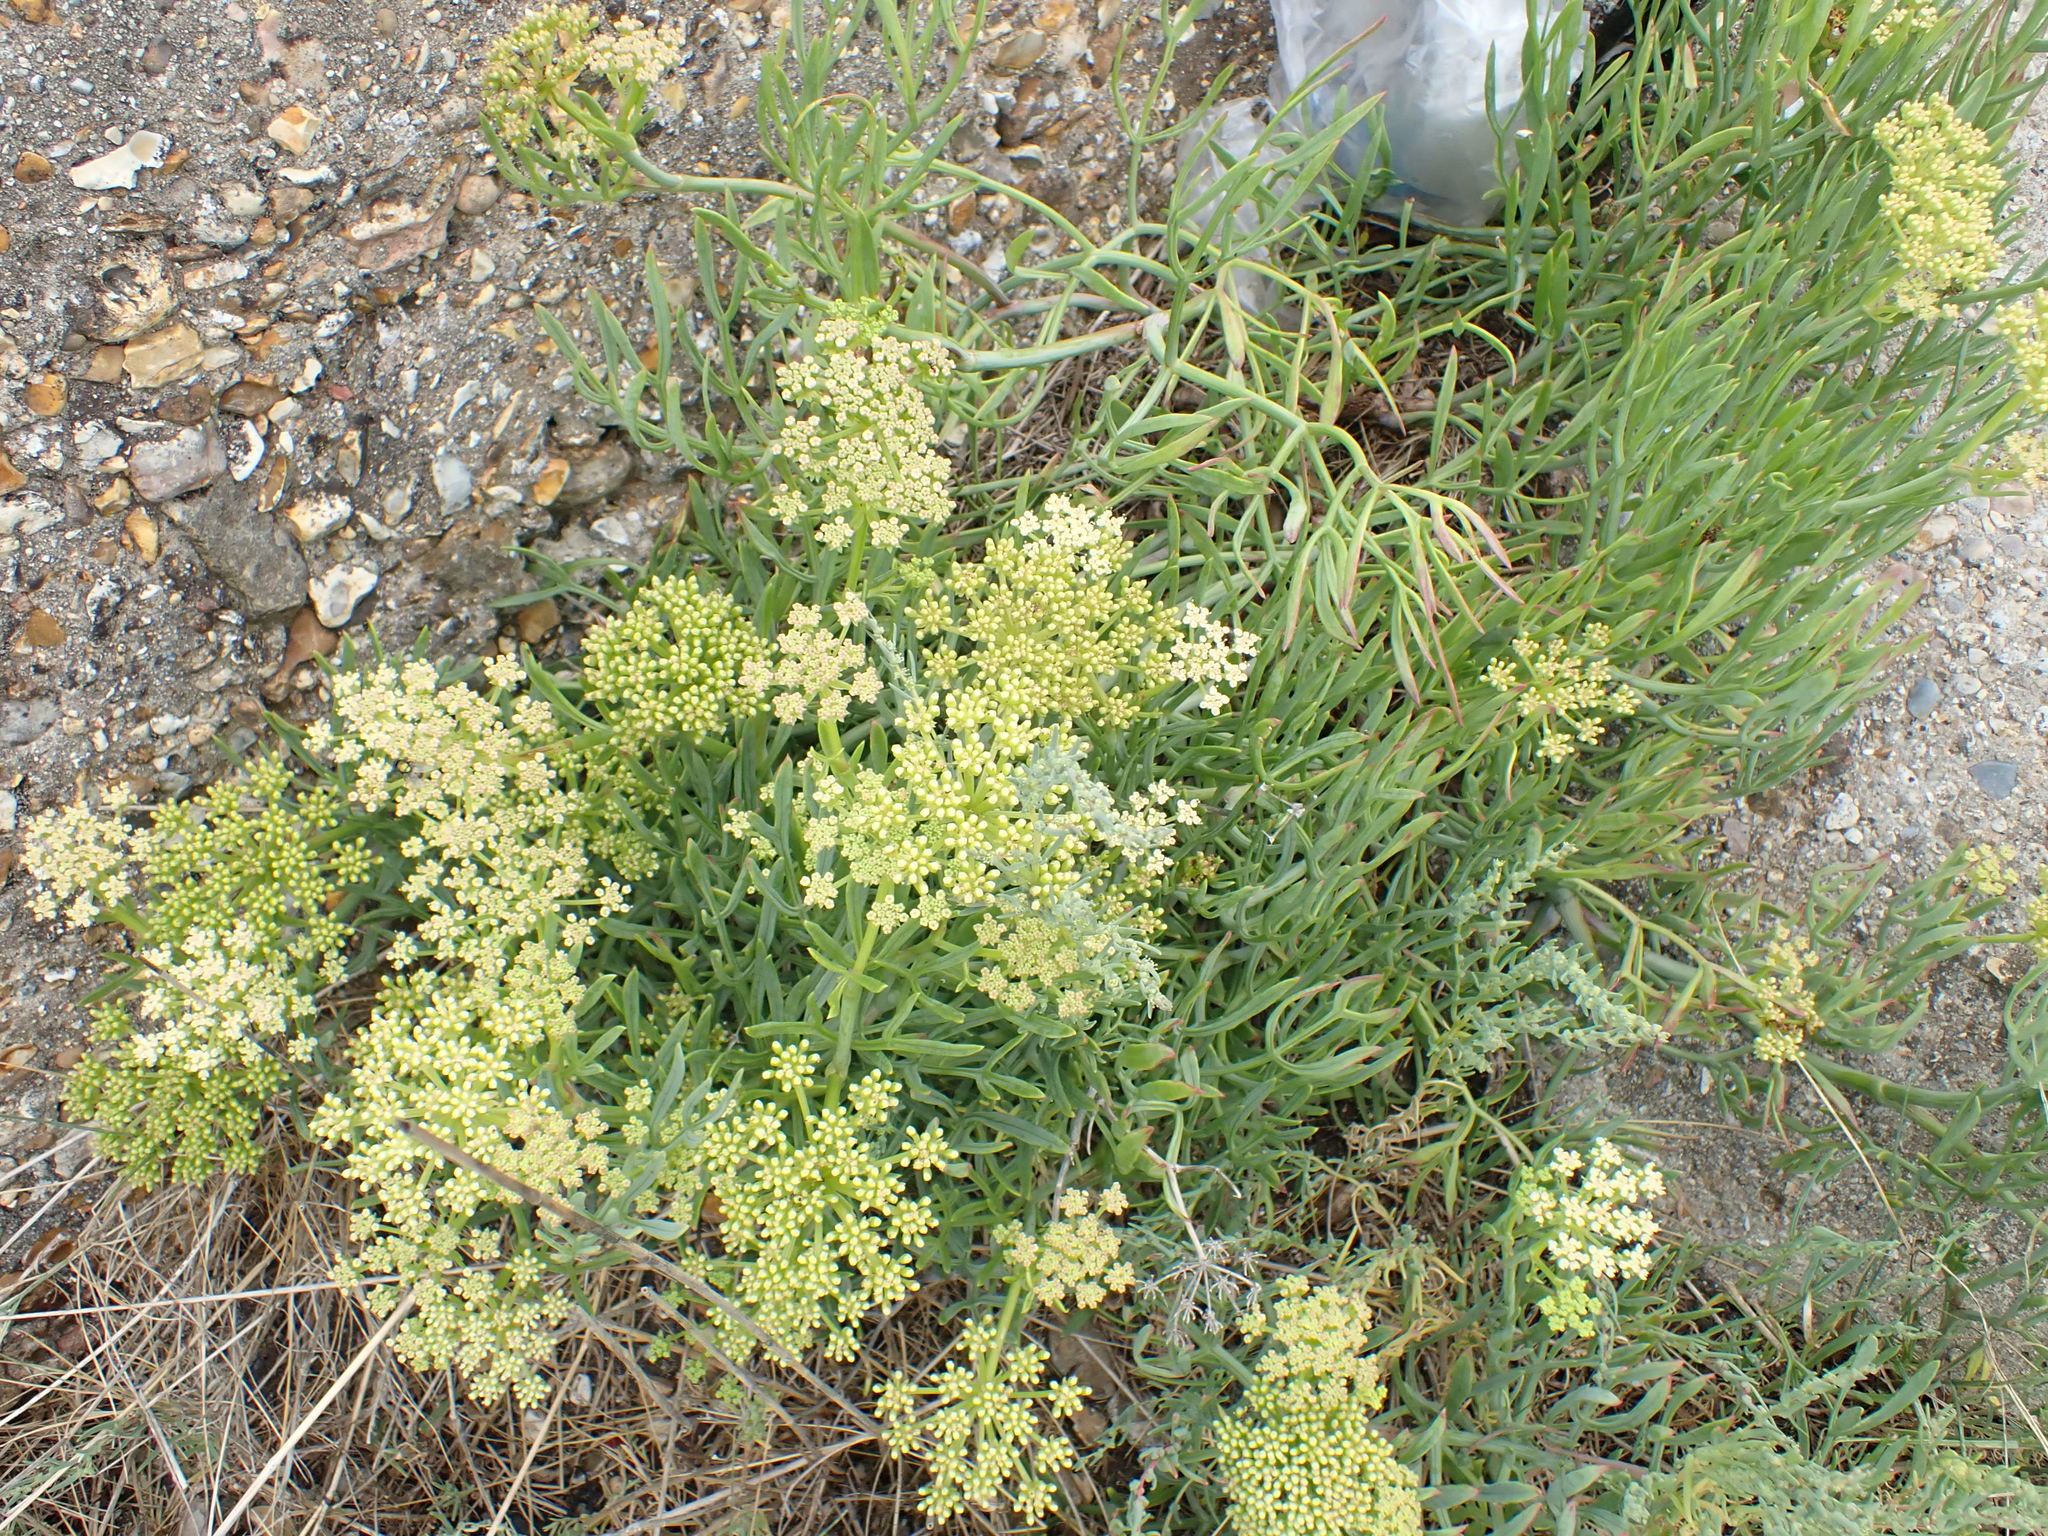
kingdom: Plantae
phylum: Tracheophyta
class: Magnoliopsida
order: Apiales
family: Apiaceae
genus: Crithmum
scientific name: Crithmum maritimum
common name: Rock samphire
